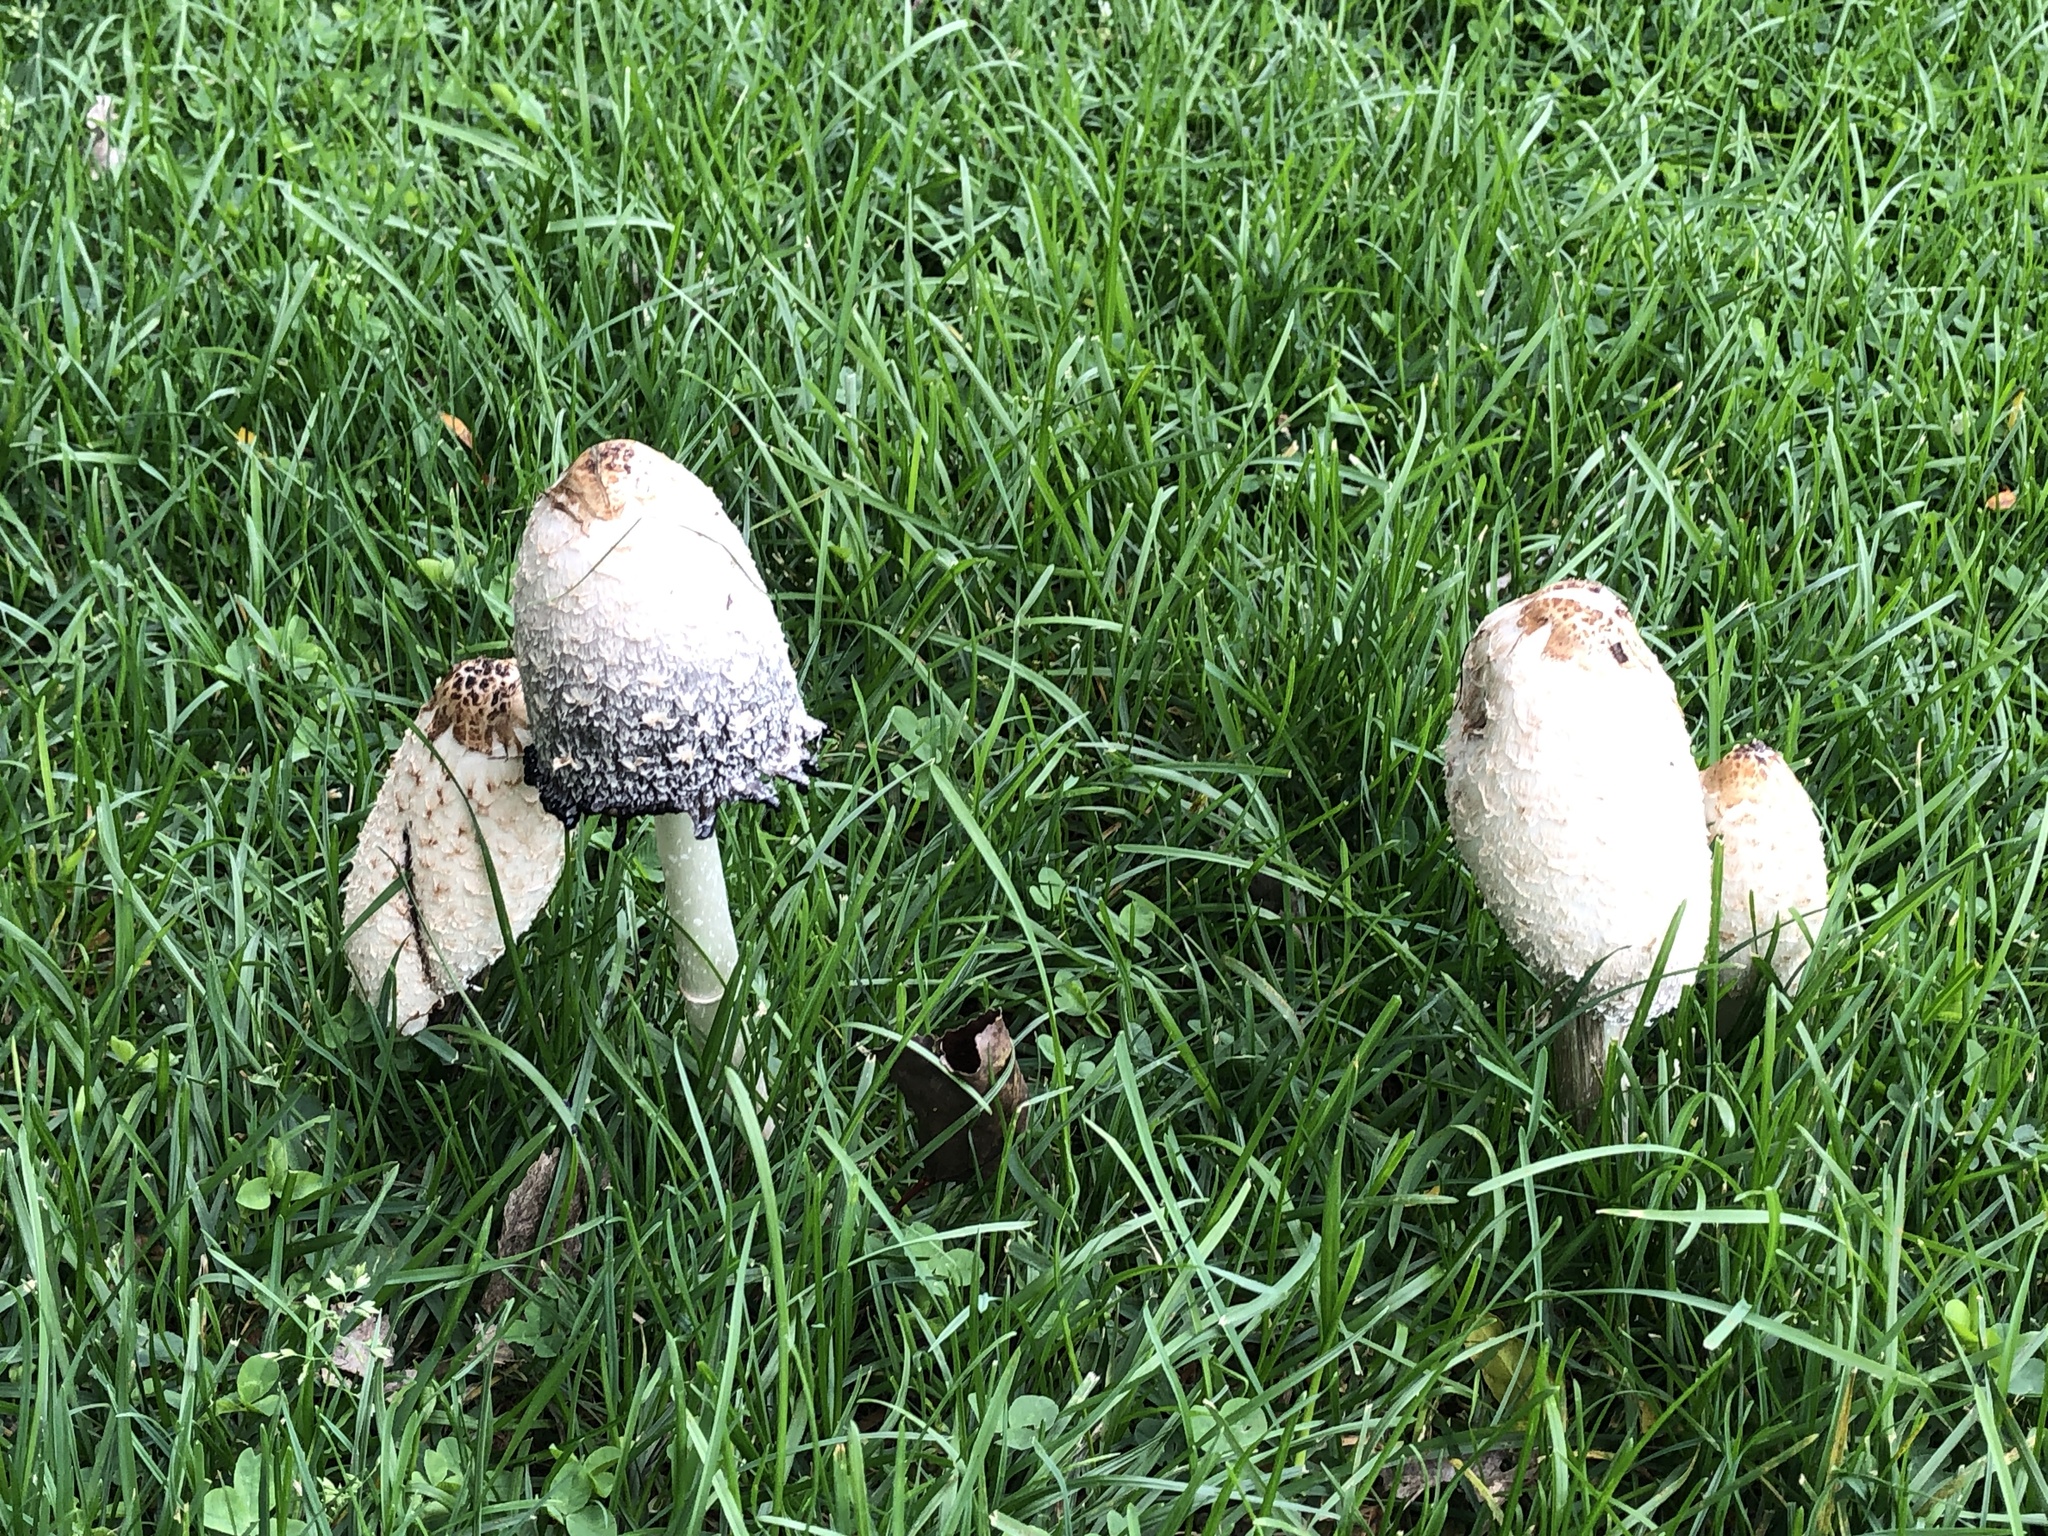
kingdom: Fungi
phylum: Basidiomycota
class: Agaricomycetes
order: Agaricales
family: Agaricaceae
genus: Coprinus
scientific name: Coprinus comatus
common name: Lawyer's wig
